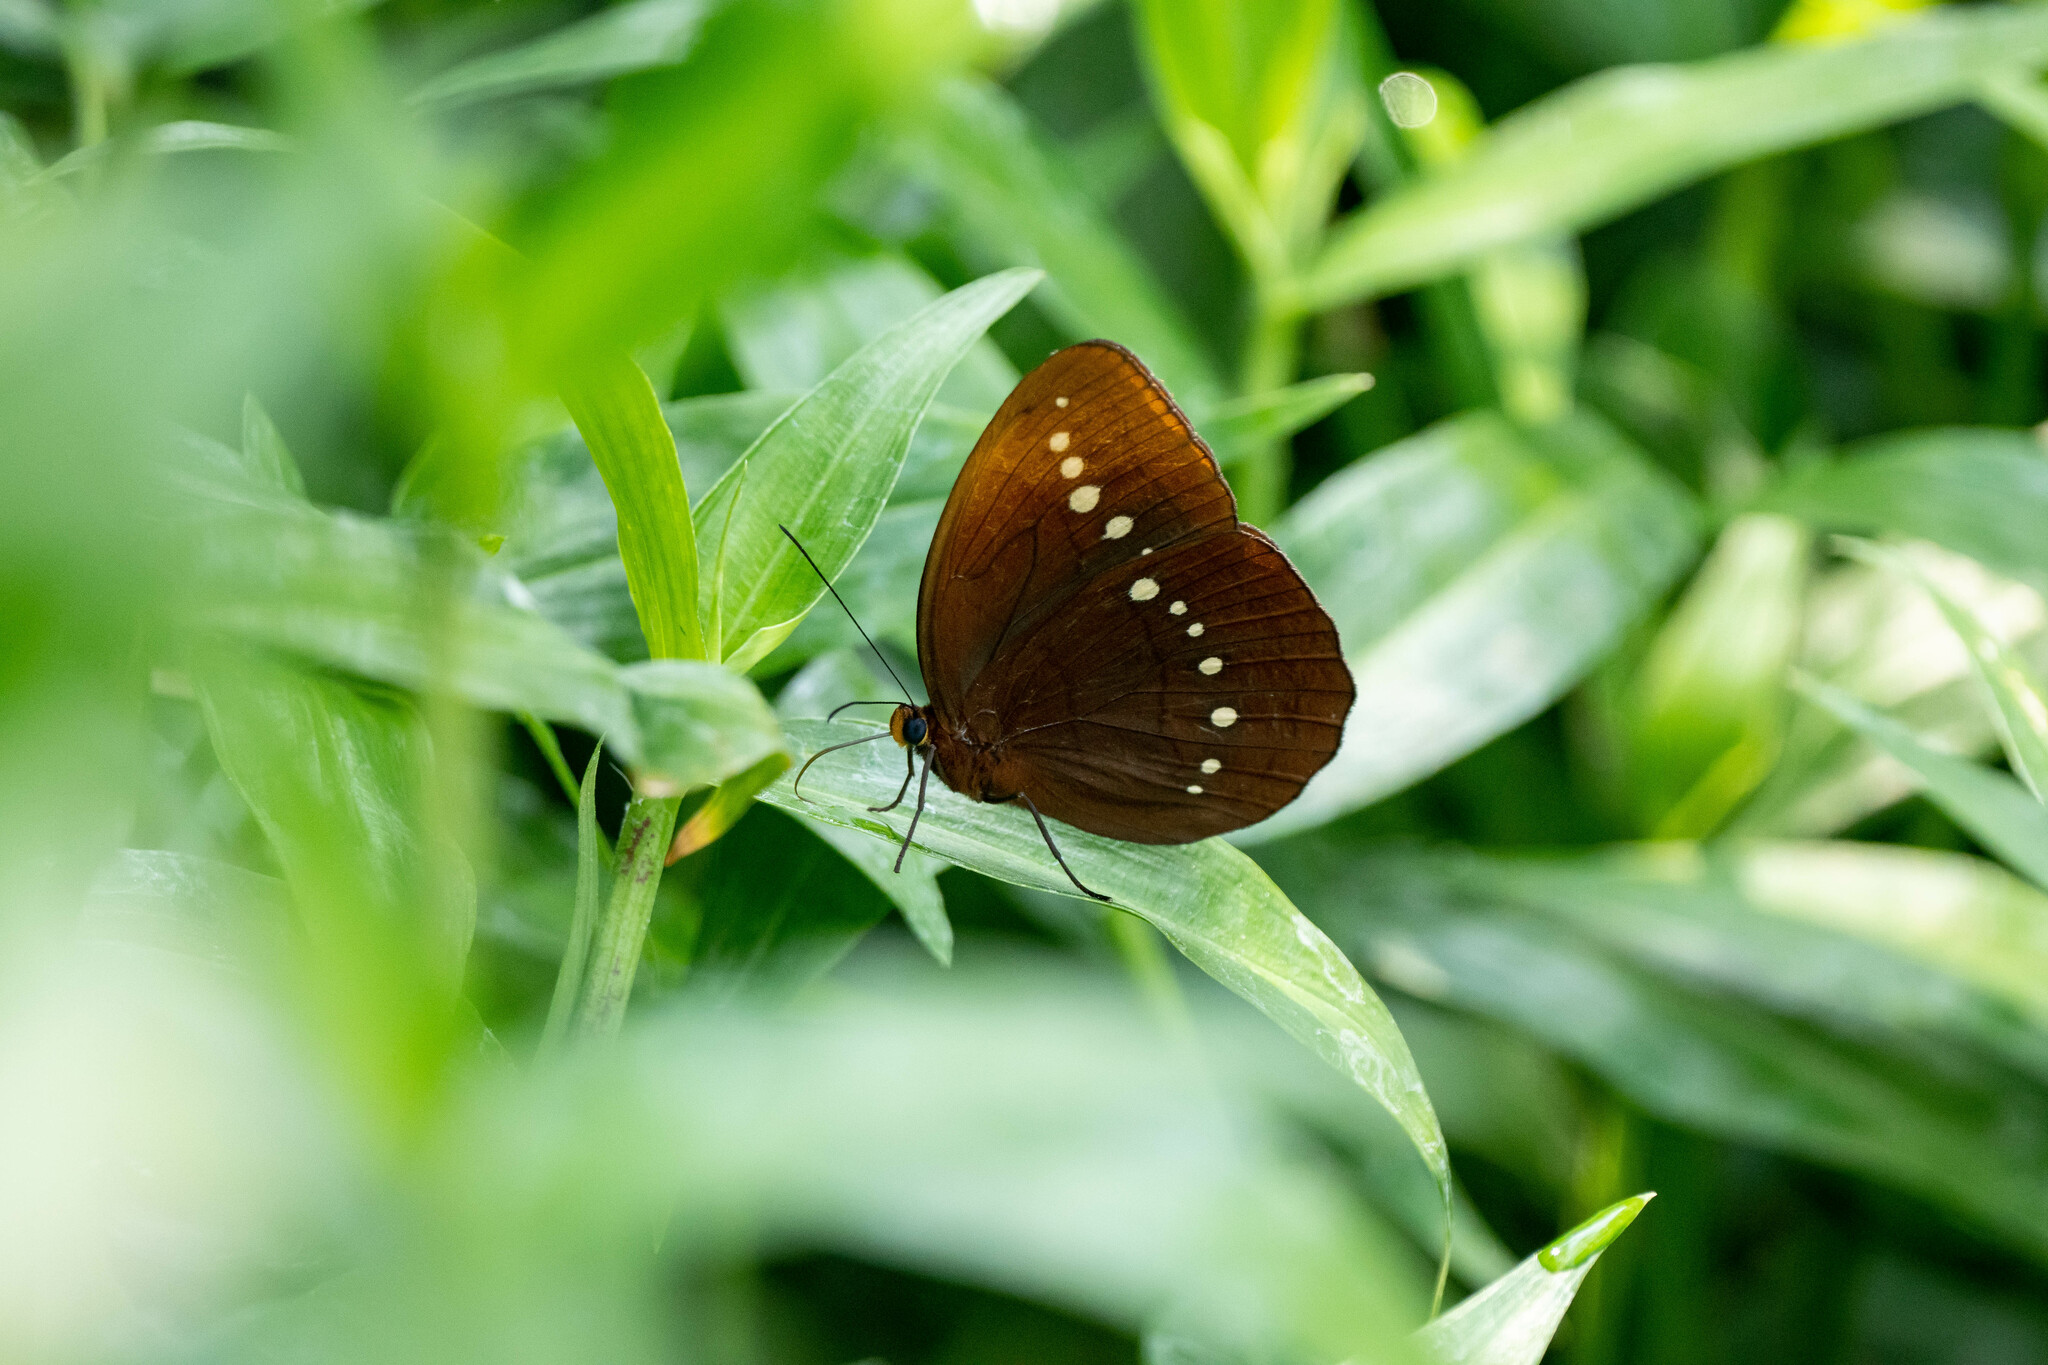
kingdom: Animalia
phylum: Arthropoda
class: Insecta
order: Lepidoptera
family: Nymphalidae
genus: Faunis
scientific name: Faunis eumeus
